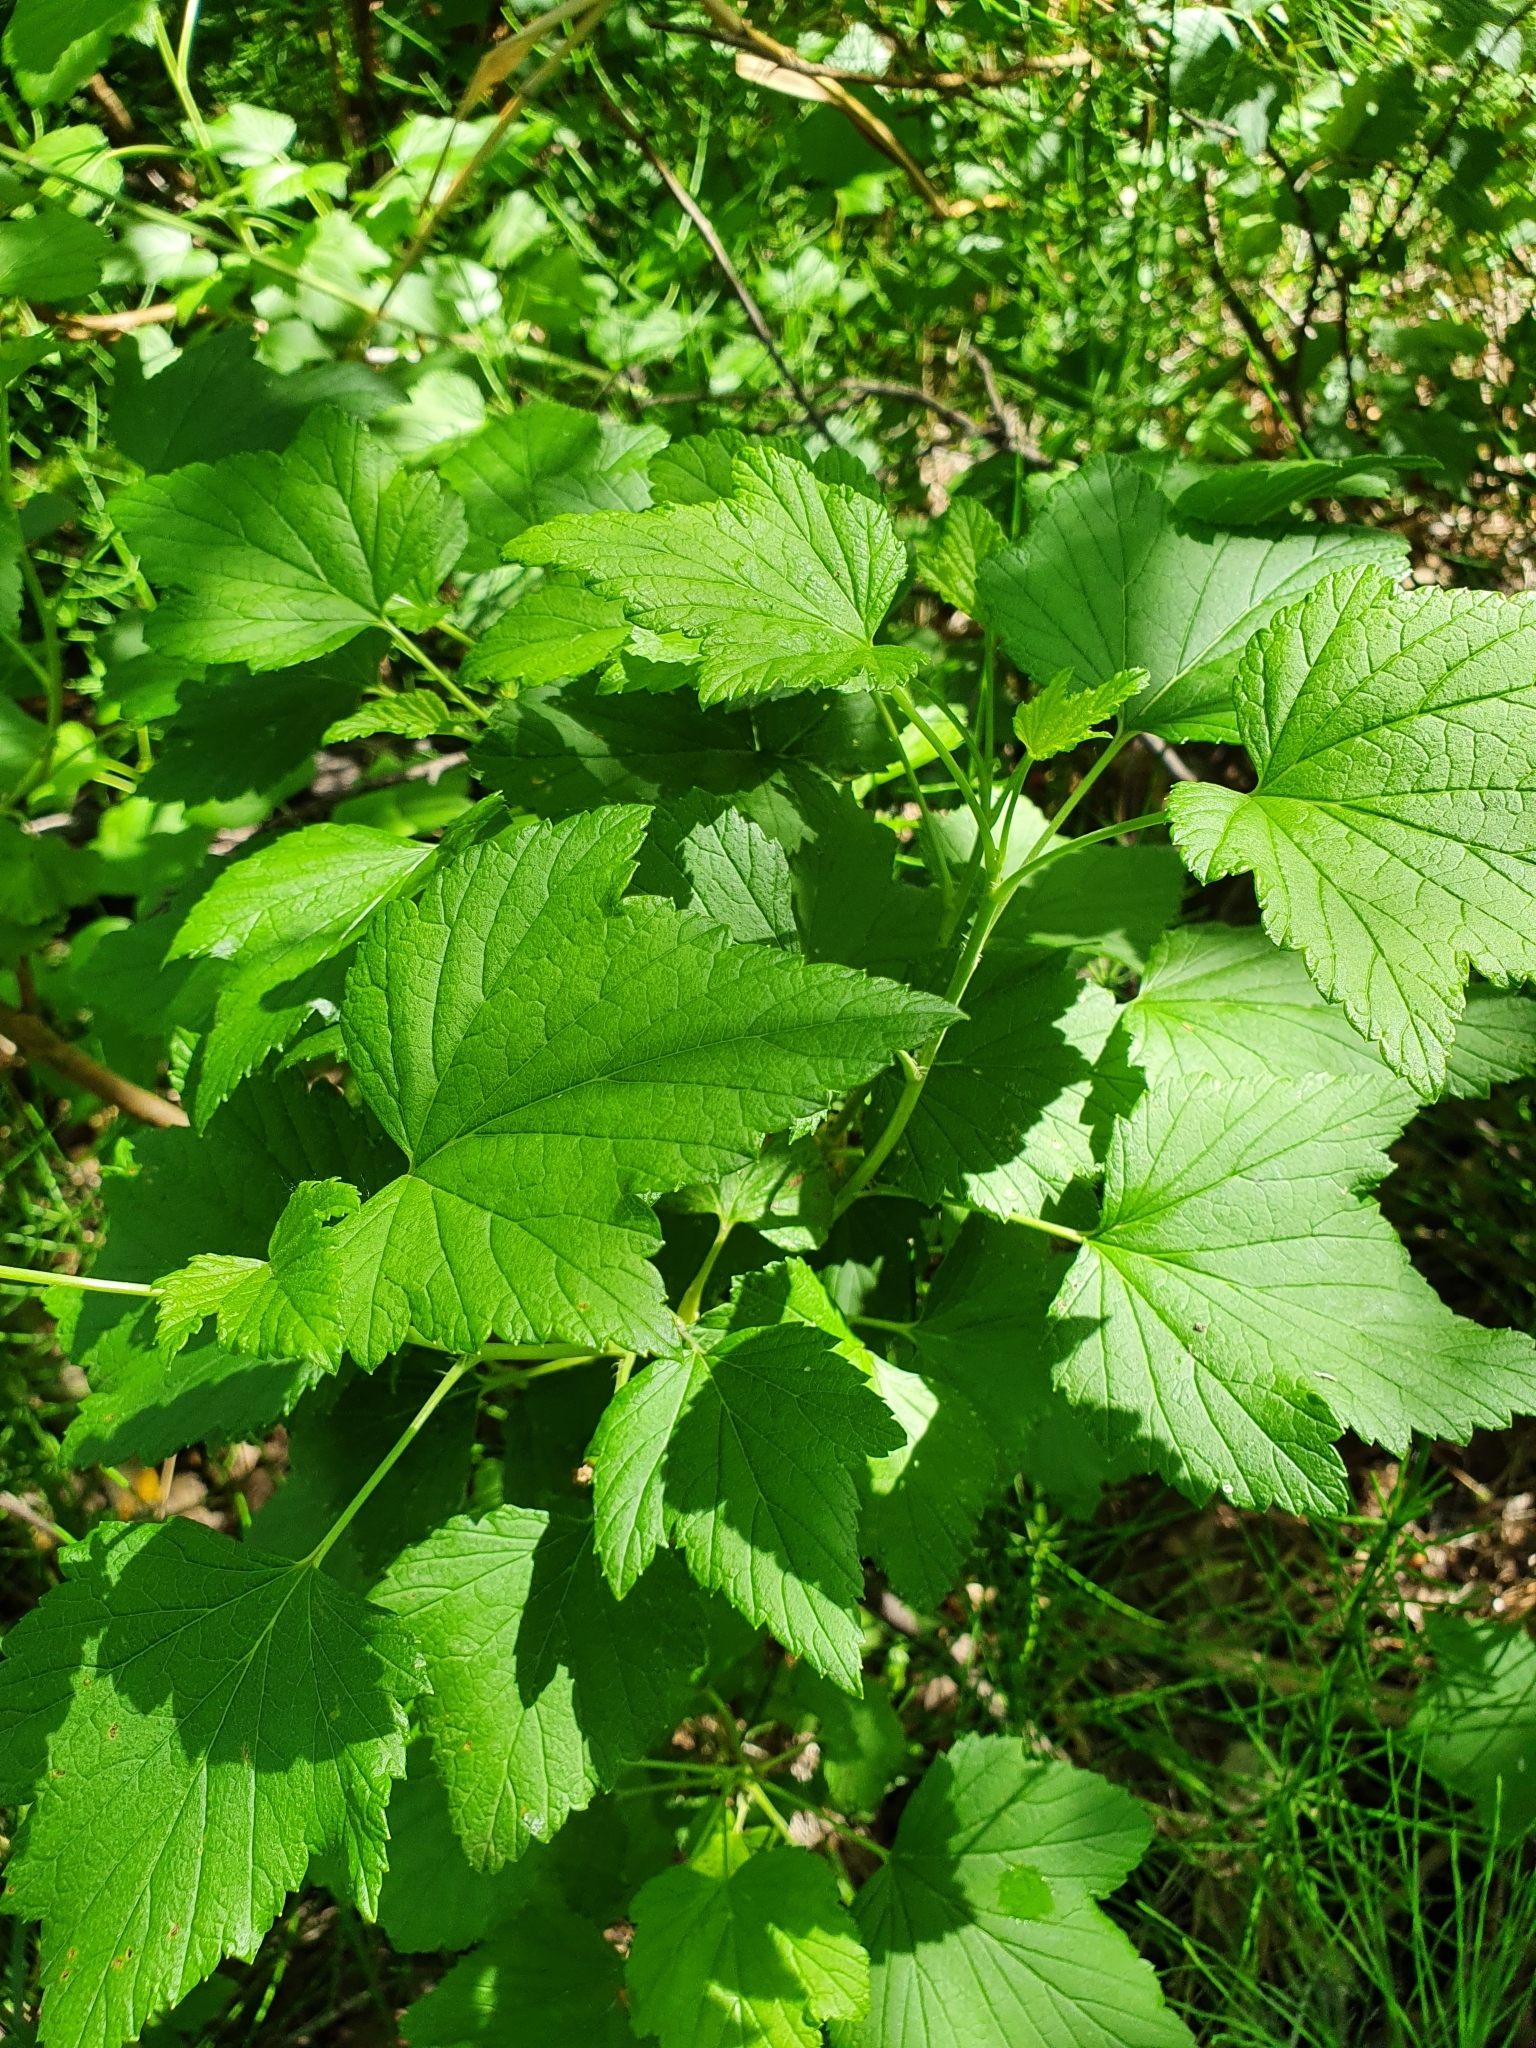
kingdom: Plantae
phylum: Tracheophyta
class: Magnoliopsida
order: Saxifragales
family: Grossulariaceae
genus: Ribes
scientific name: Ribes nigrum
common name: Black currant
